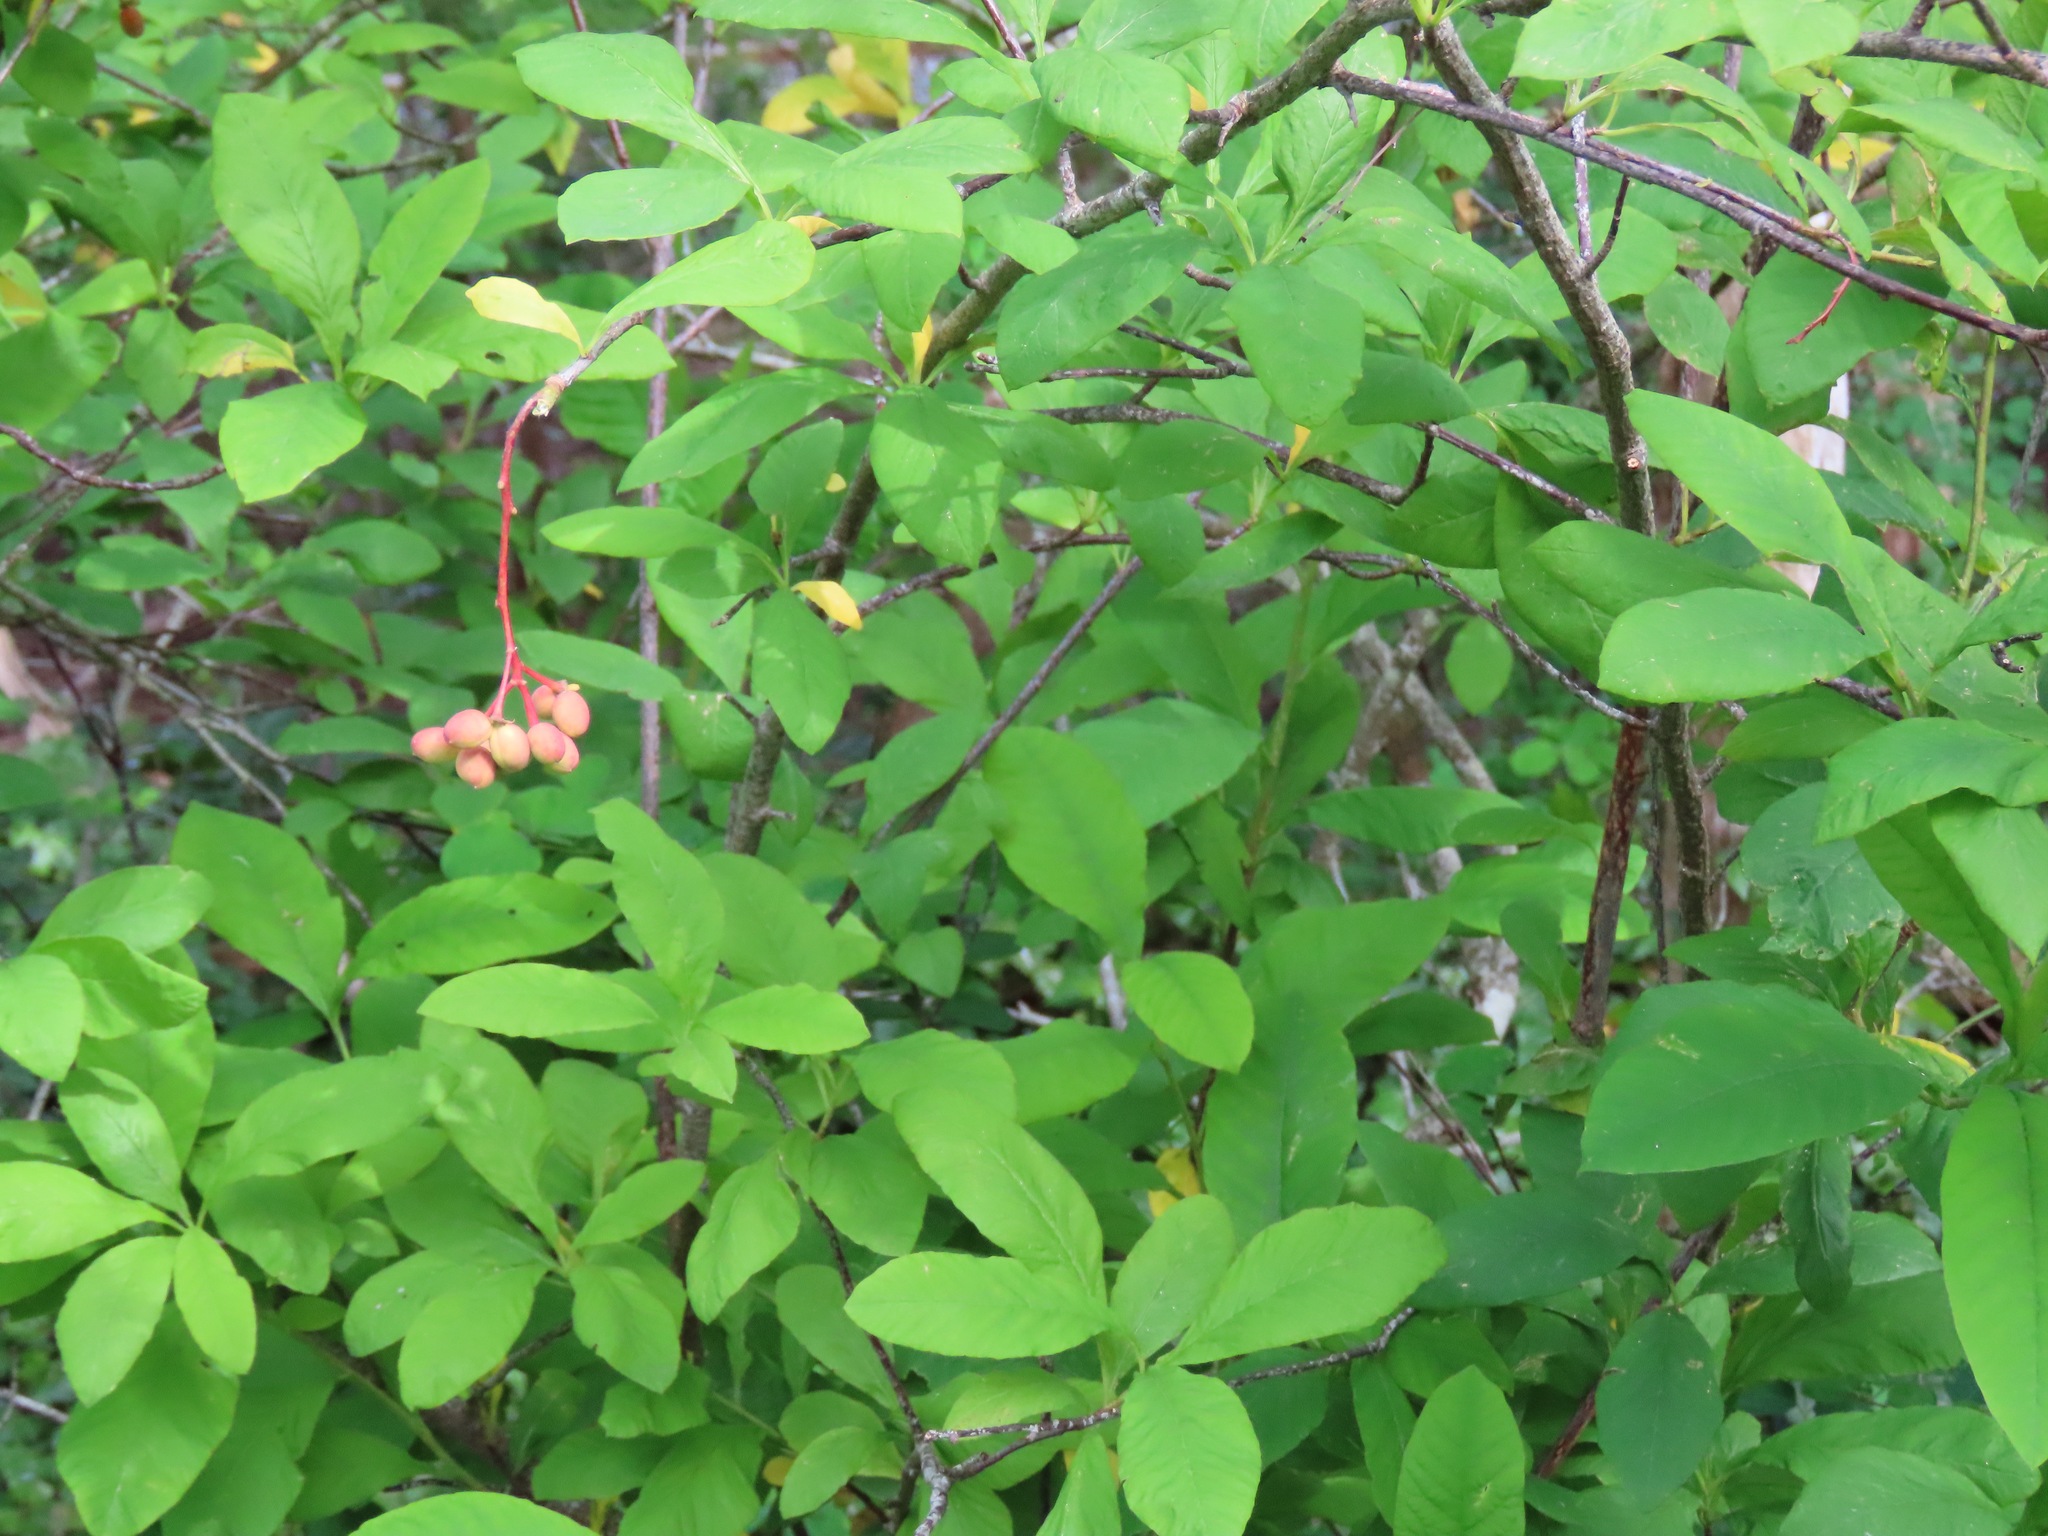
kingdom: Plantae
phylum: Tracheophyta
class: Magnoliopsida
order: Rosales
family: Rosaceae
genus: Oemleria
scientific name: Oemleria cerasiformis
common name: Osoberry
